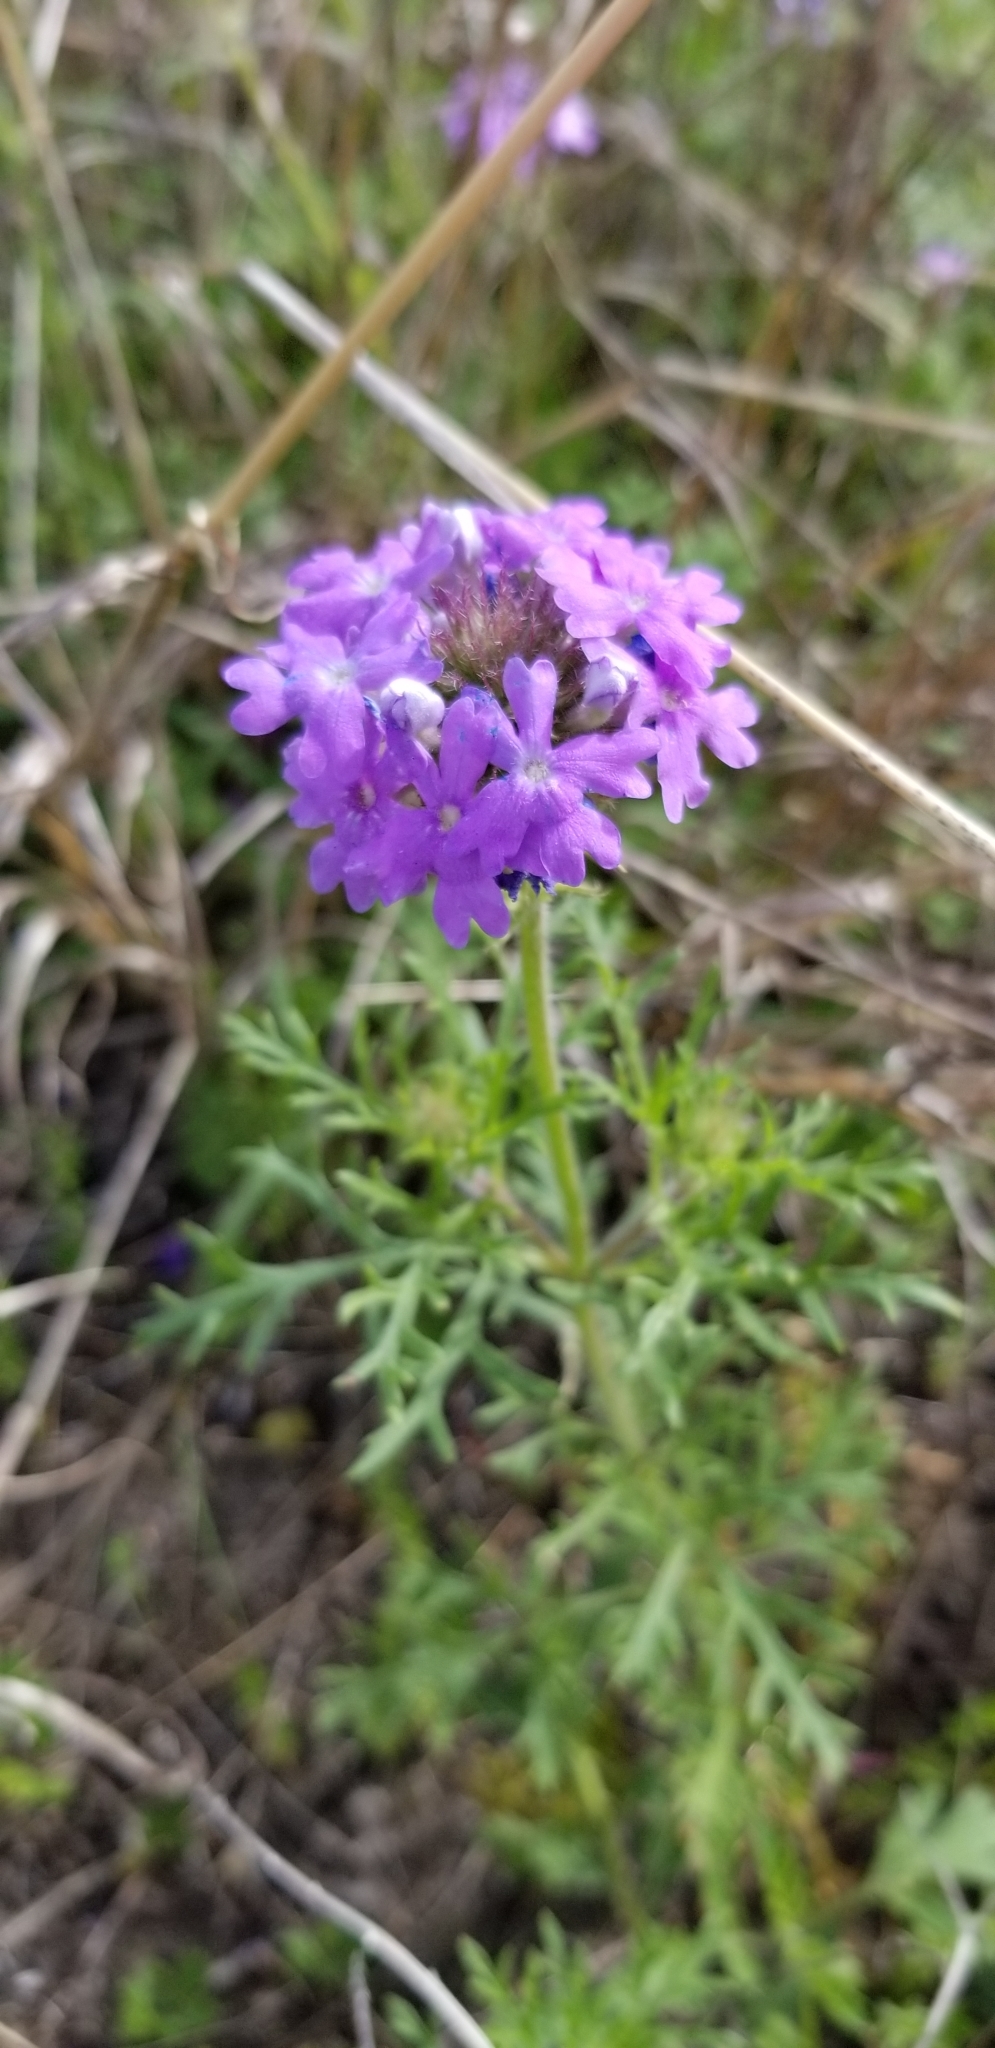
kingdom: Plantae
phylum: Tracheophyta
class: Magnoliopsida
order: Lamiales
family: Verbenaceae
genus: Verbena
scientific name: Verbena bipinnatifida
